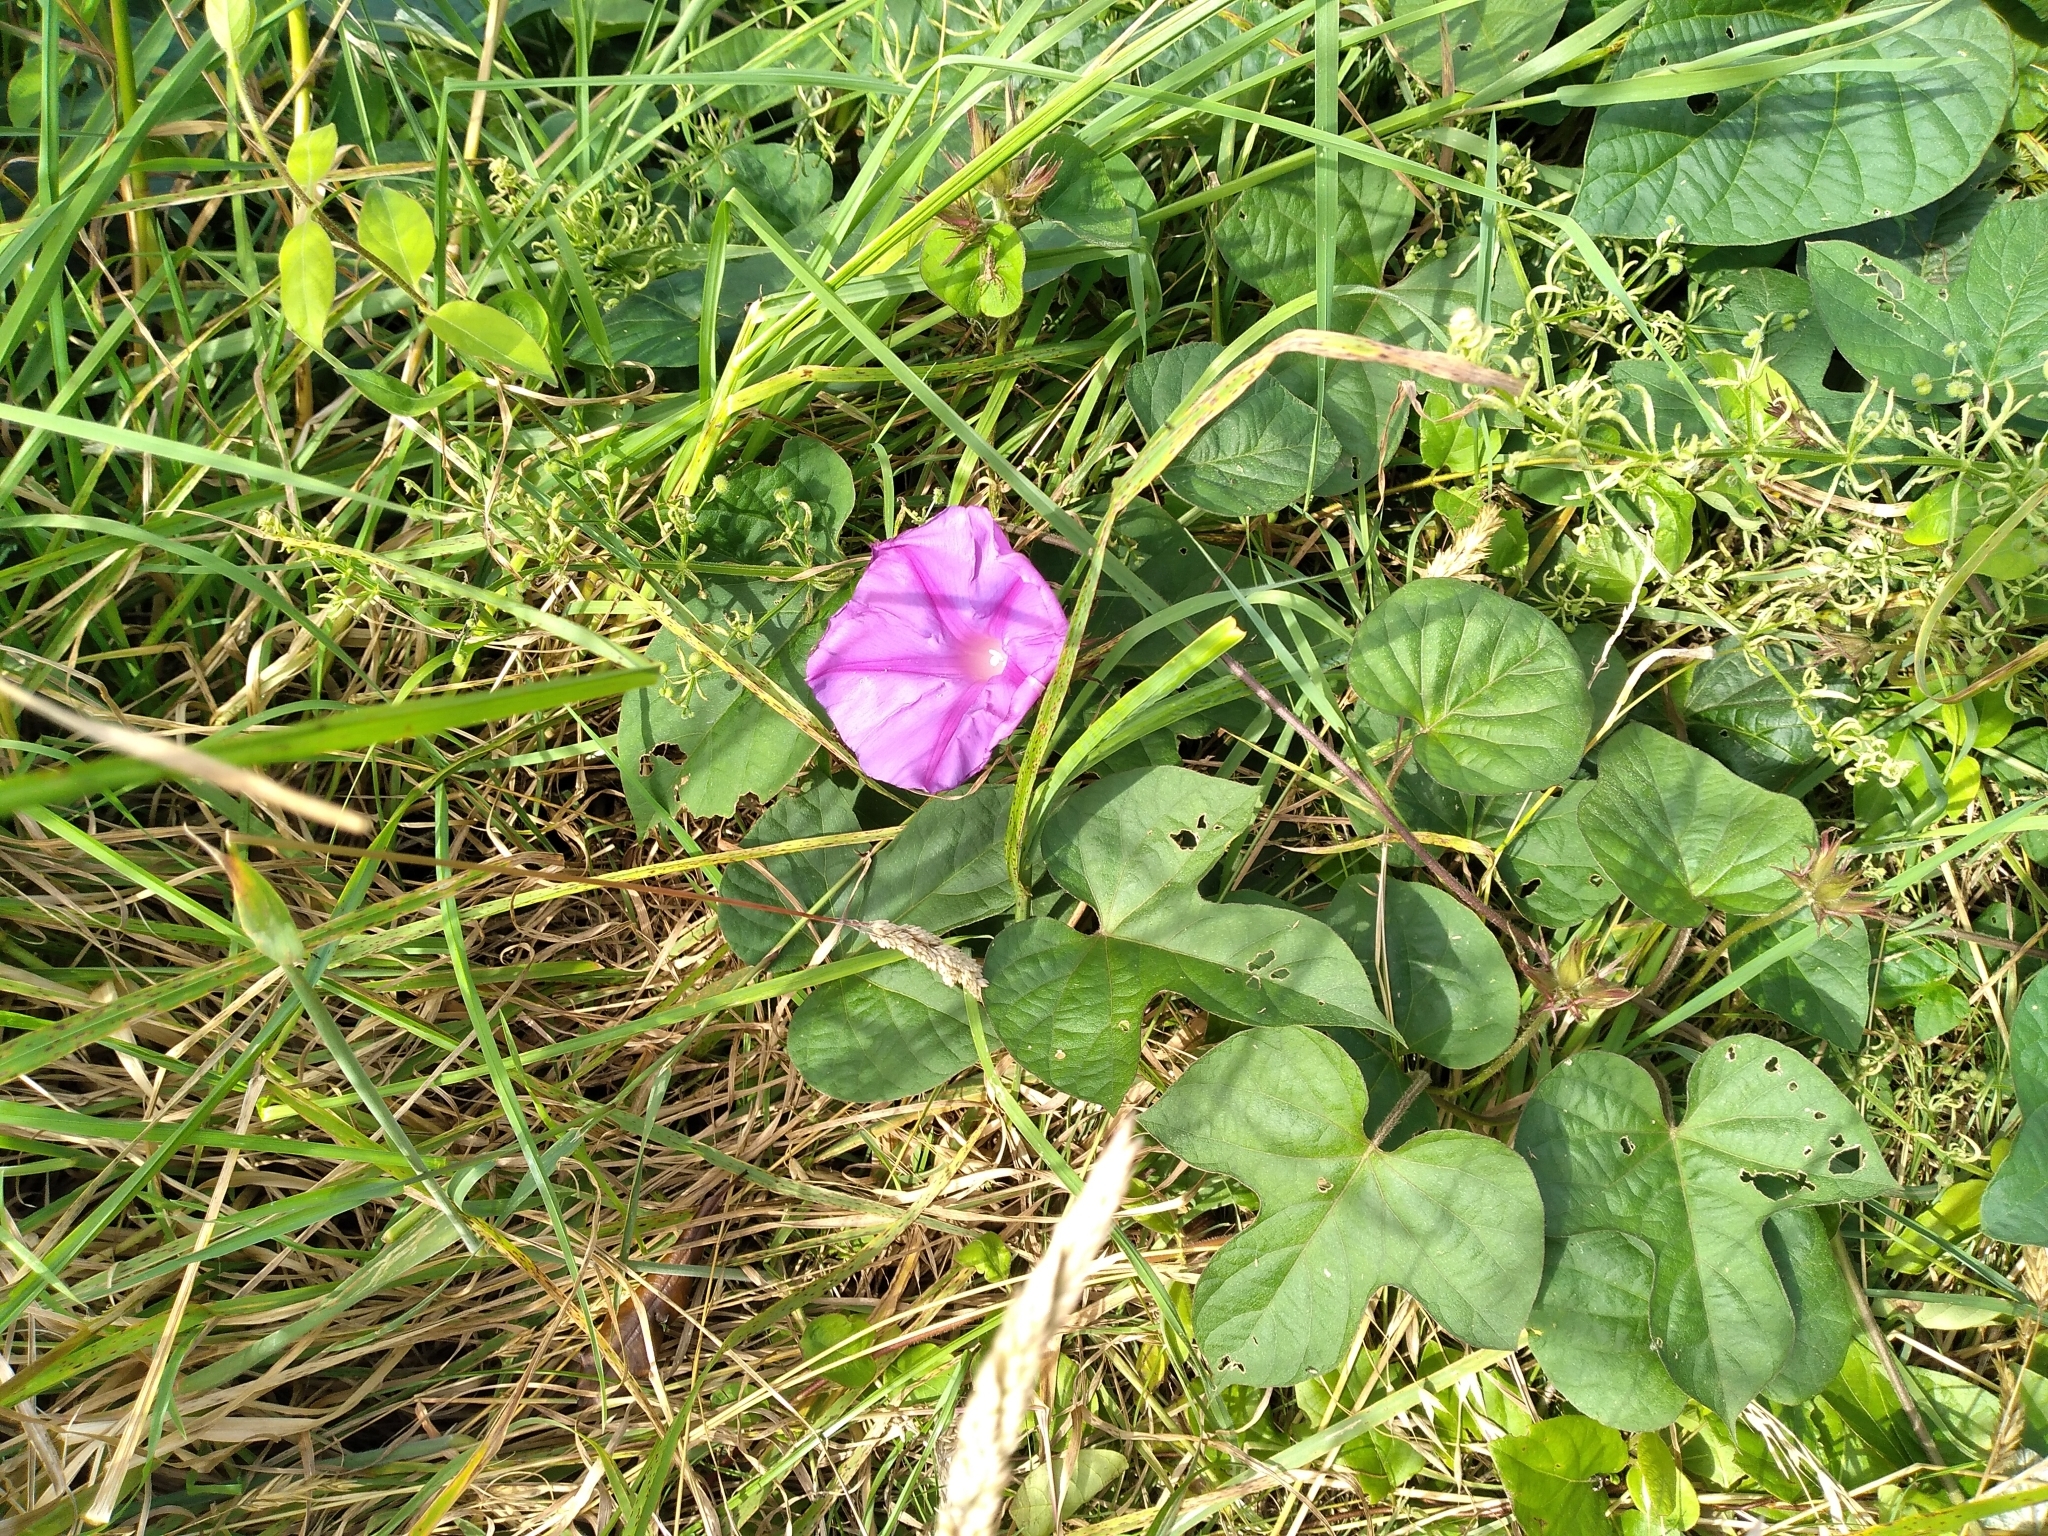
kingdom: Plantae
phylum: Tracheophyta
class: Magnoliopsida
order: Solanales
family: Convolvulaceae
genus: Ipomoea
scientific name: Ipomoea indica
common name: Blue dawnflower
